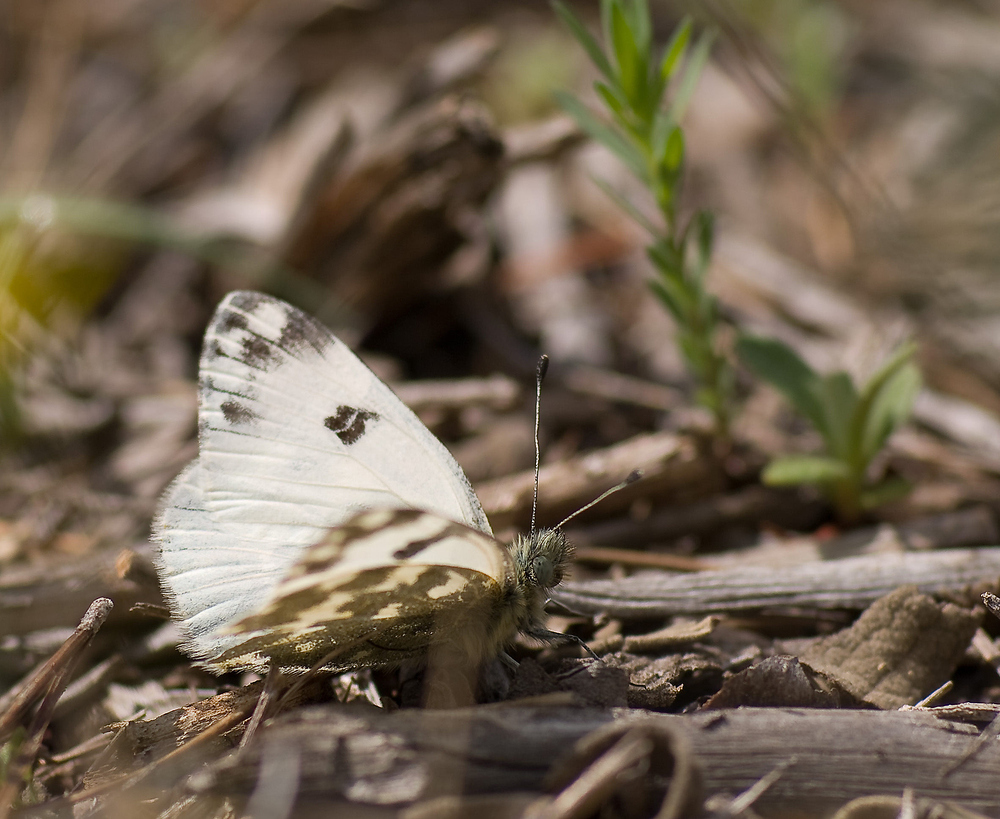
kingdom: Animalia
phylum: Arthropoda
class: Insecta
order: Lepidoptera
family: Pieridae
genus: Pontia
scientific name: Pontia daplidice
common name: Bath white
